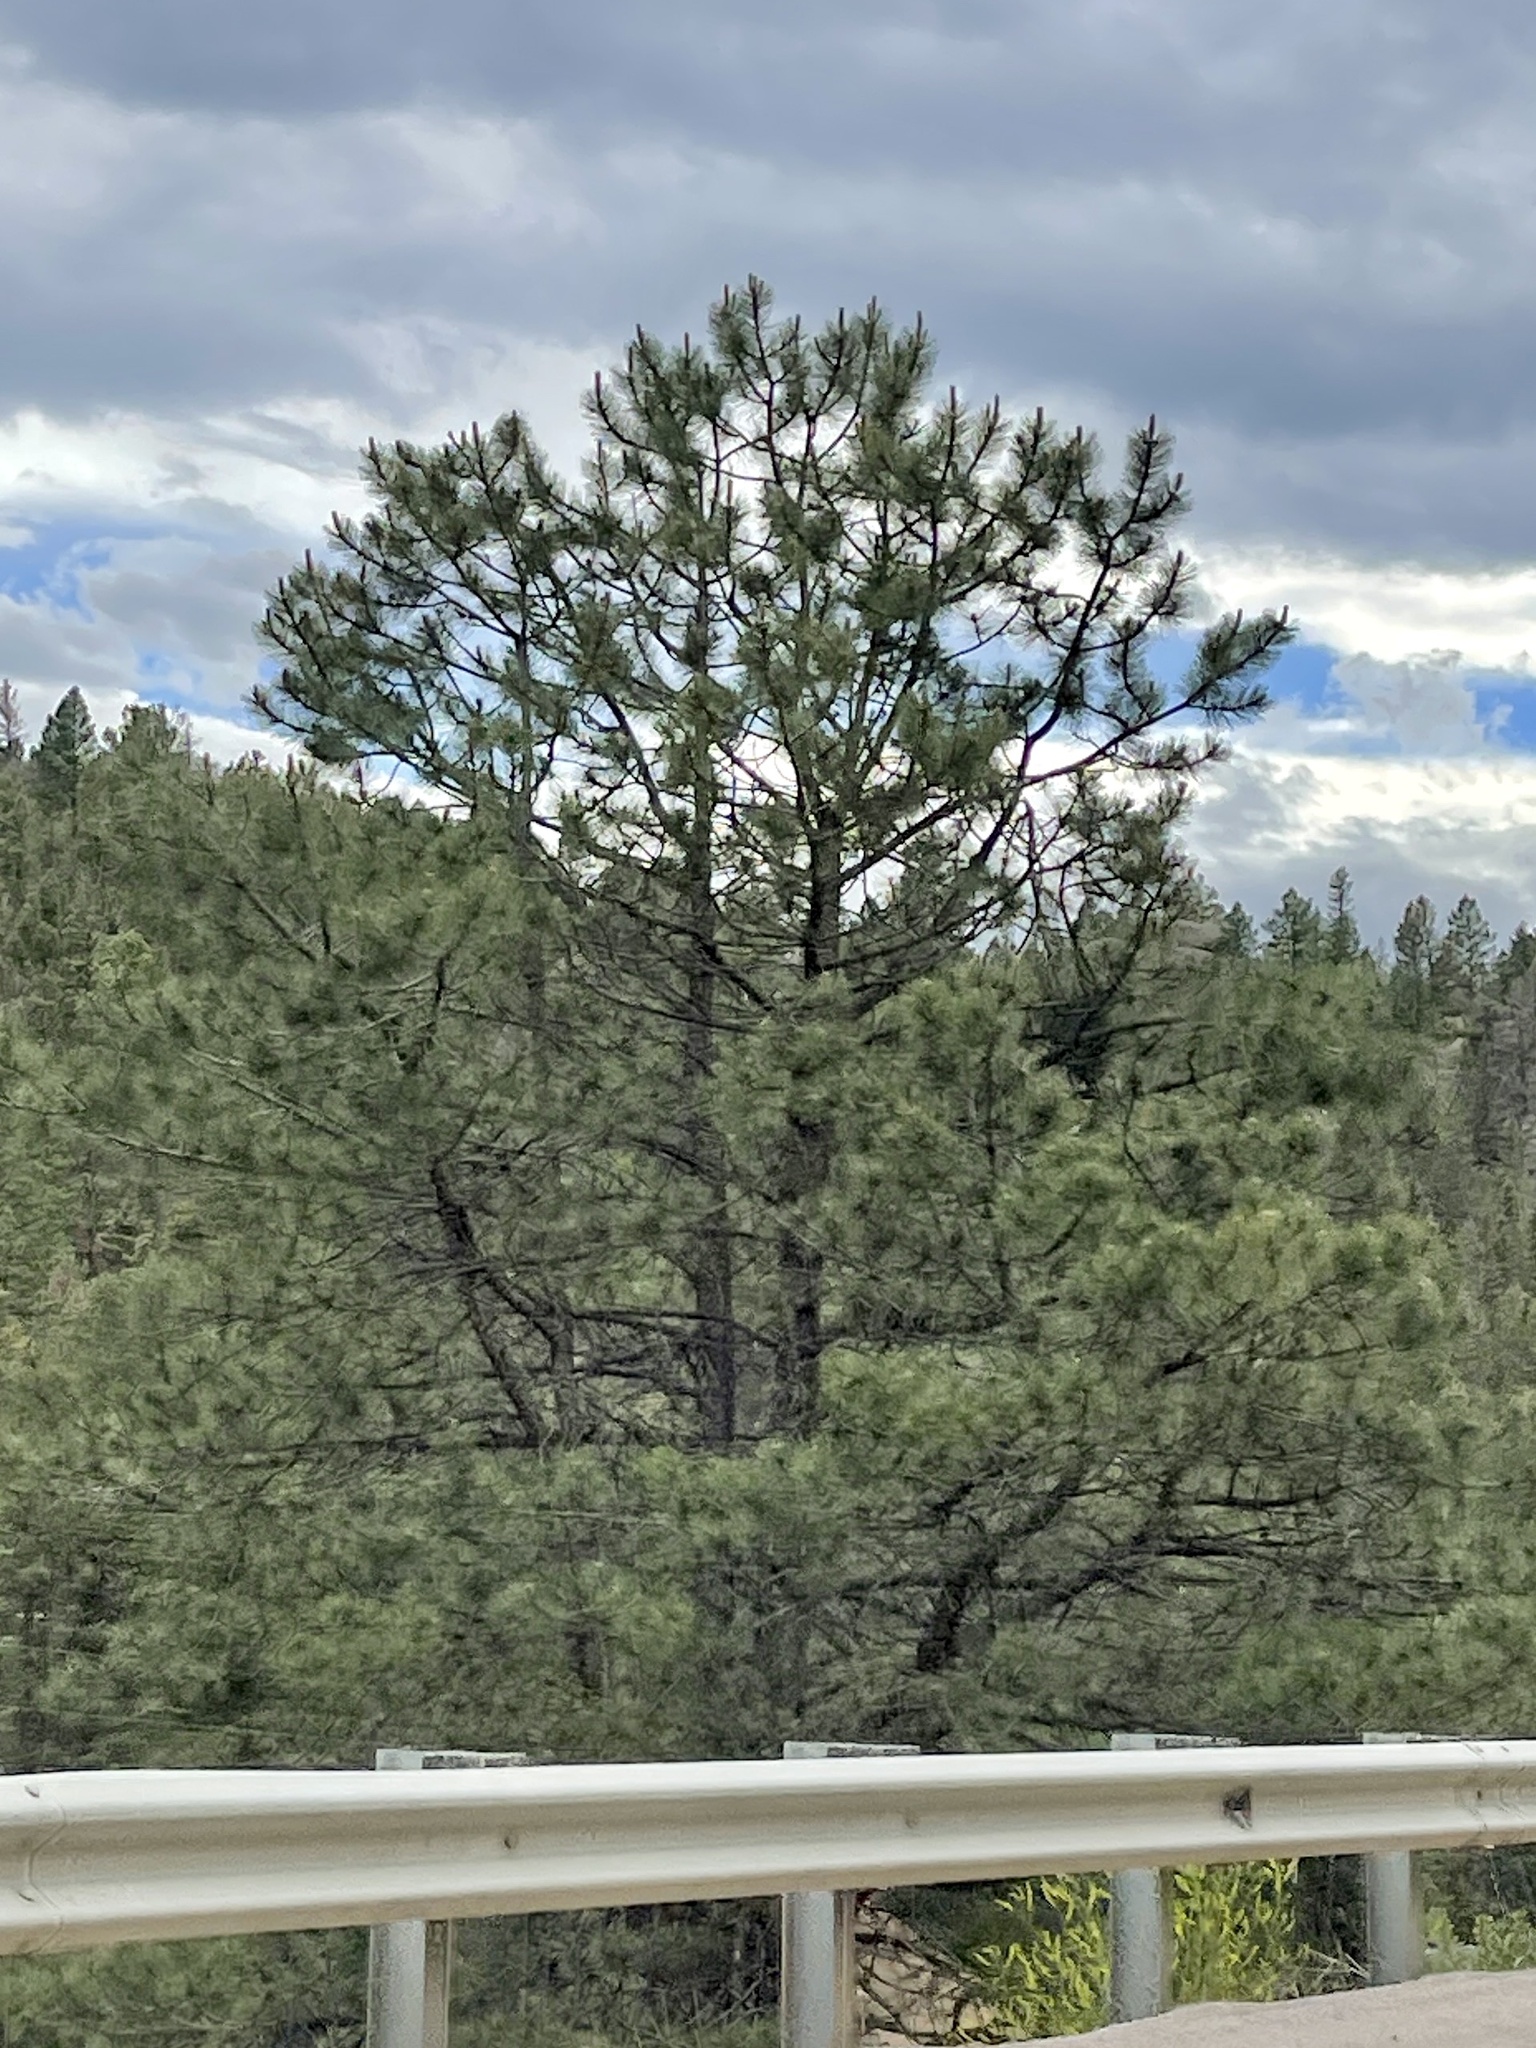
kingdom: Plantae
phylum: Tracheophyta
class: Pinopsida
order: Pinales
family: Pinaceae
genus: Pinus
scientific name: Pinus ponderosa
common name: Western yellow-pine
